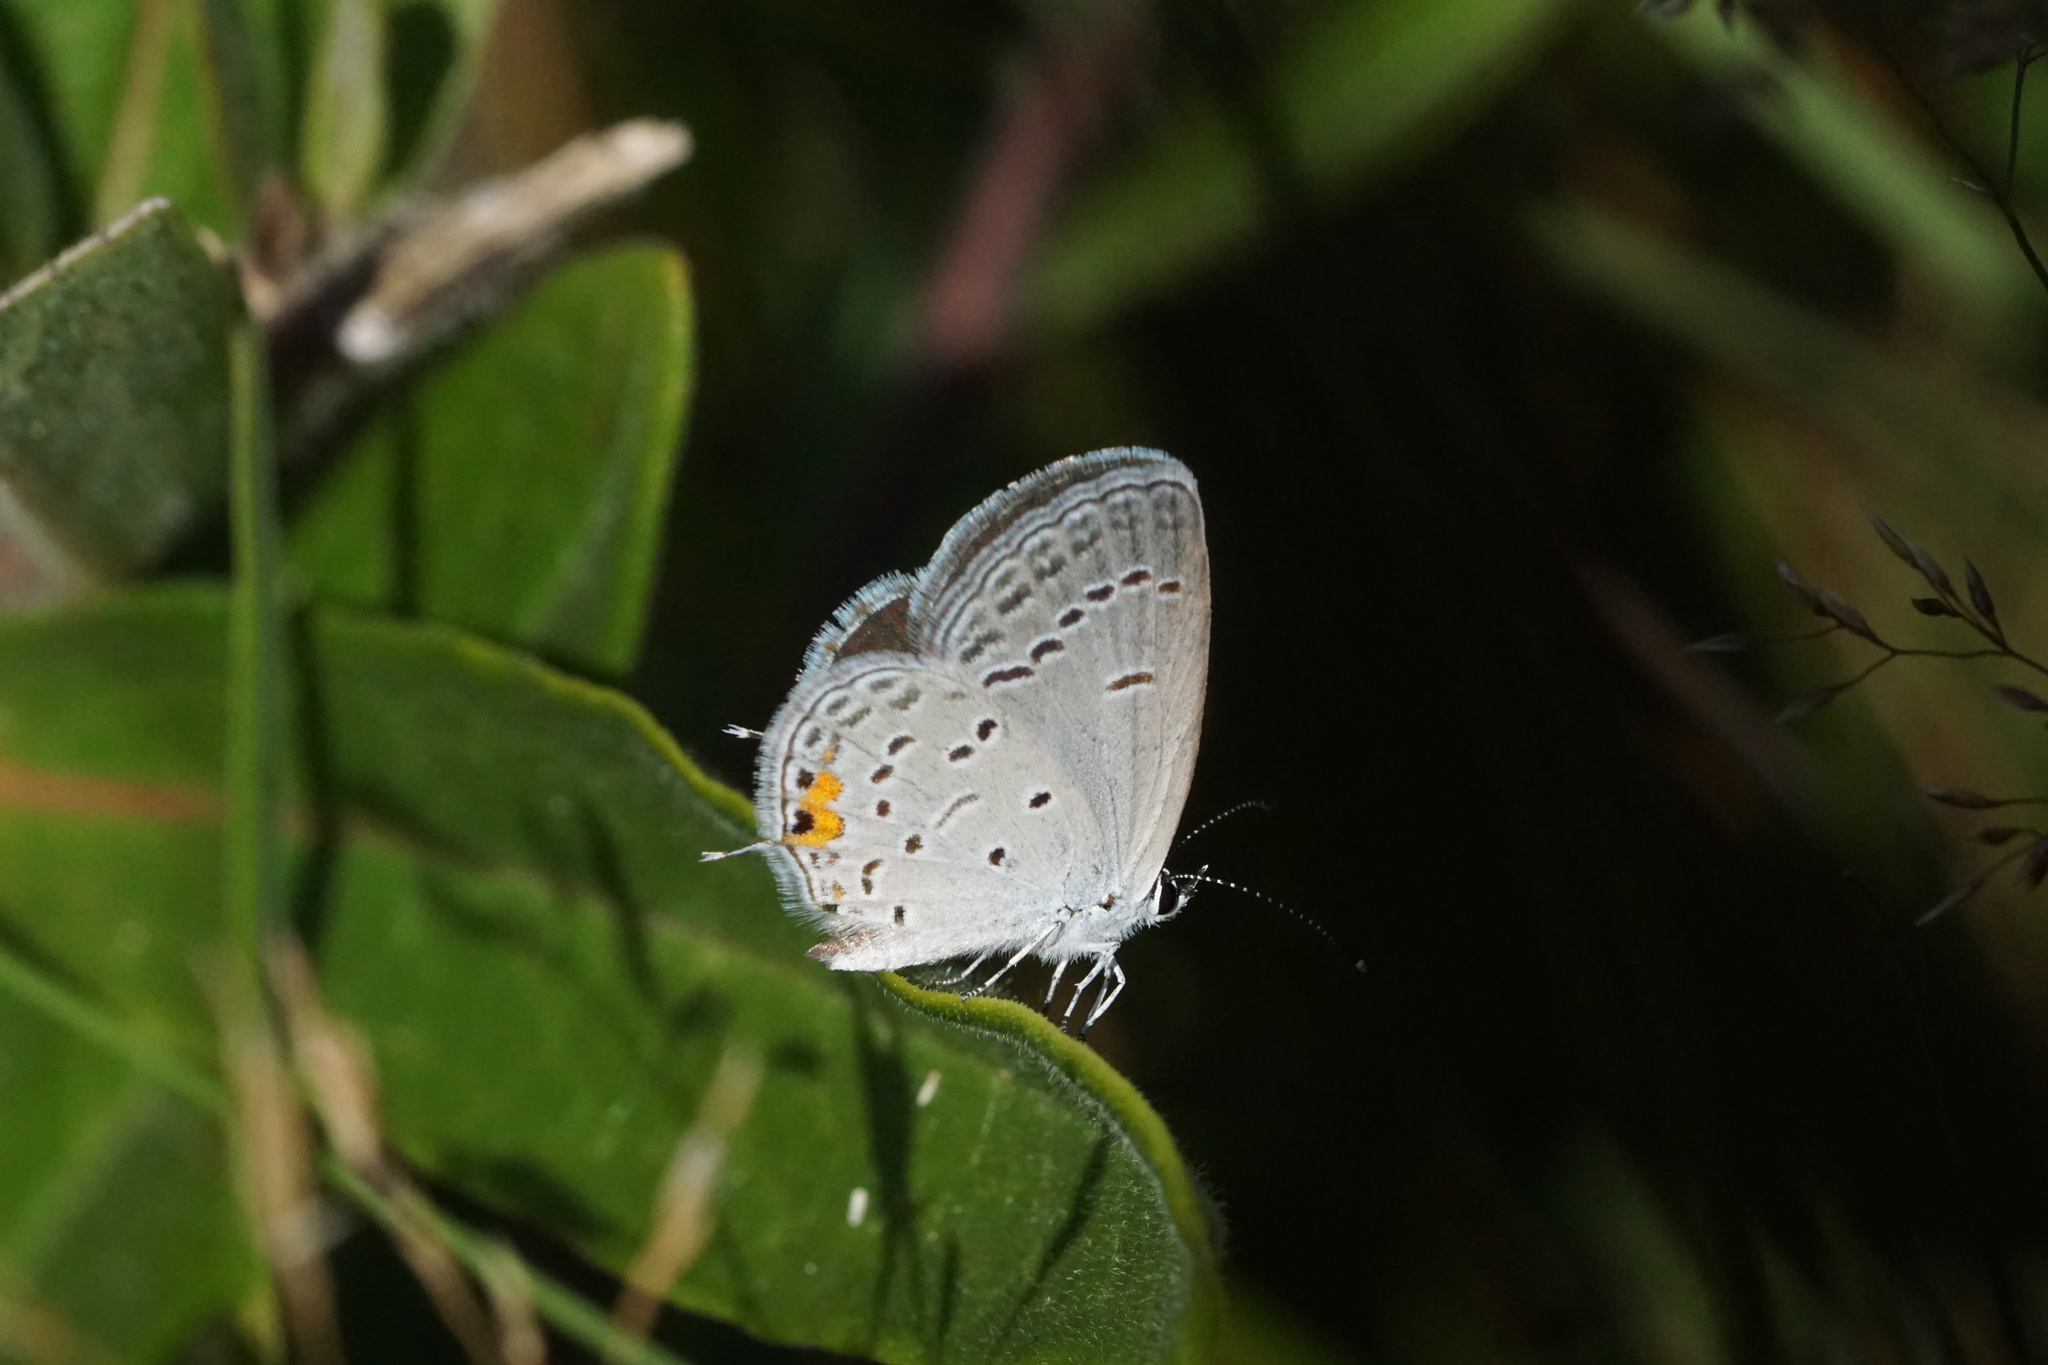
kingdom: Animalia
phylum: Arthropoda
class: Insecta
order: Lepidoptera
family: Lycaenidae
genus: Elkalyce
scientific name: Elkalyce comyntas
